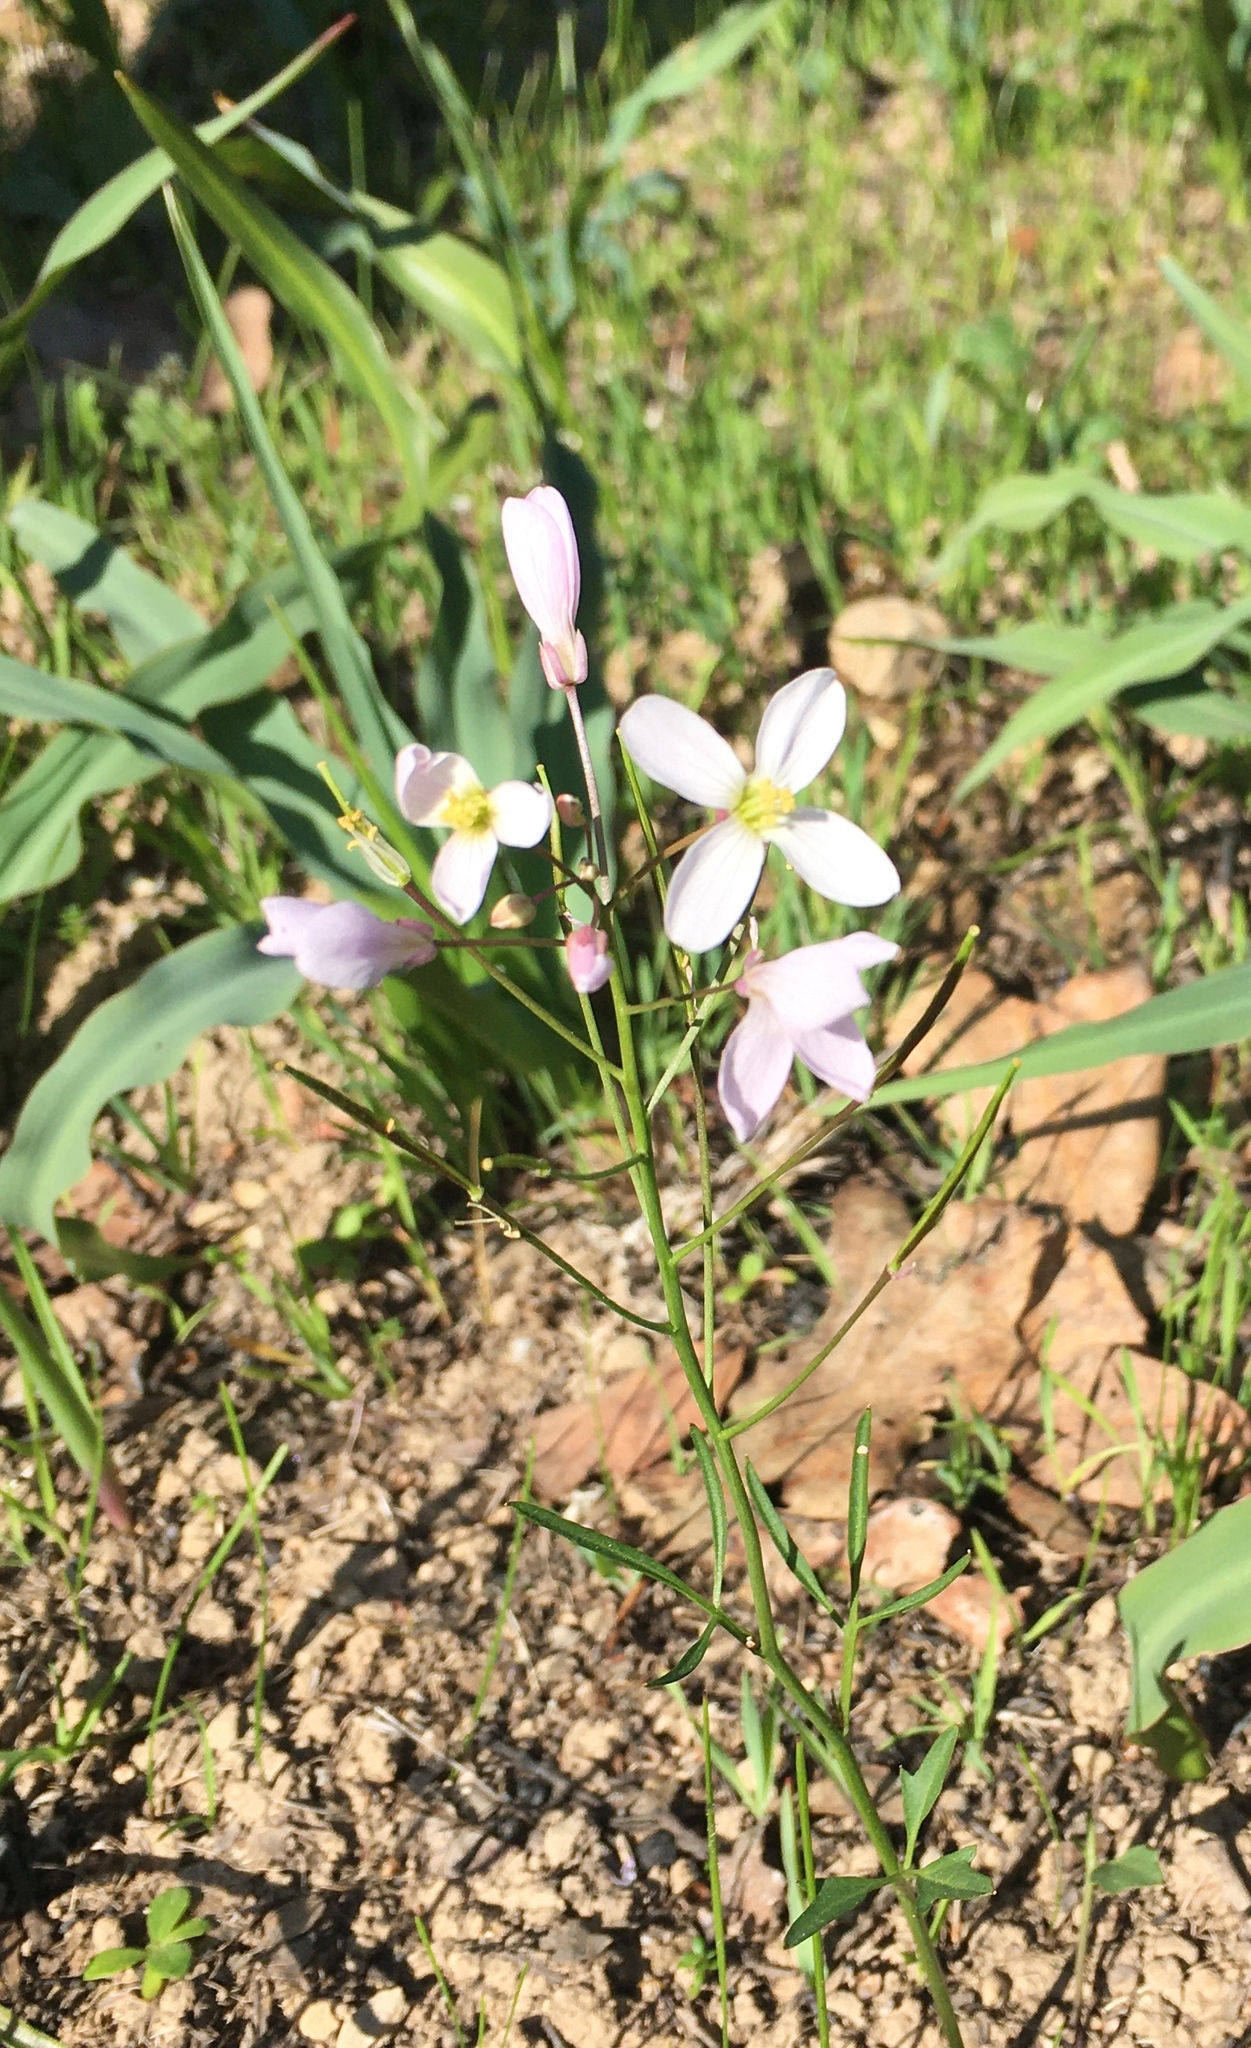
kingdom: Plantae
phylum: Tracheophyta
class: Magnoliopsida
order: Brassicales
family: Brassicaceae
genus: Cardamine
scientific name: Cardamine californica
